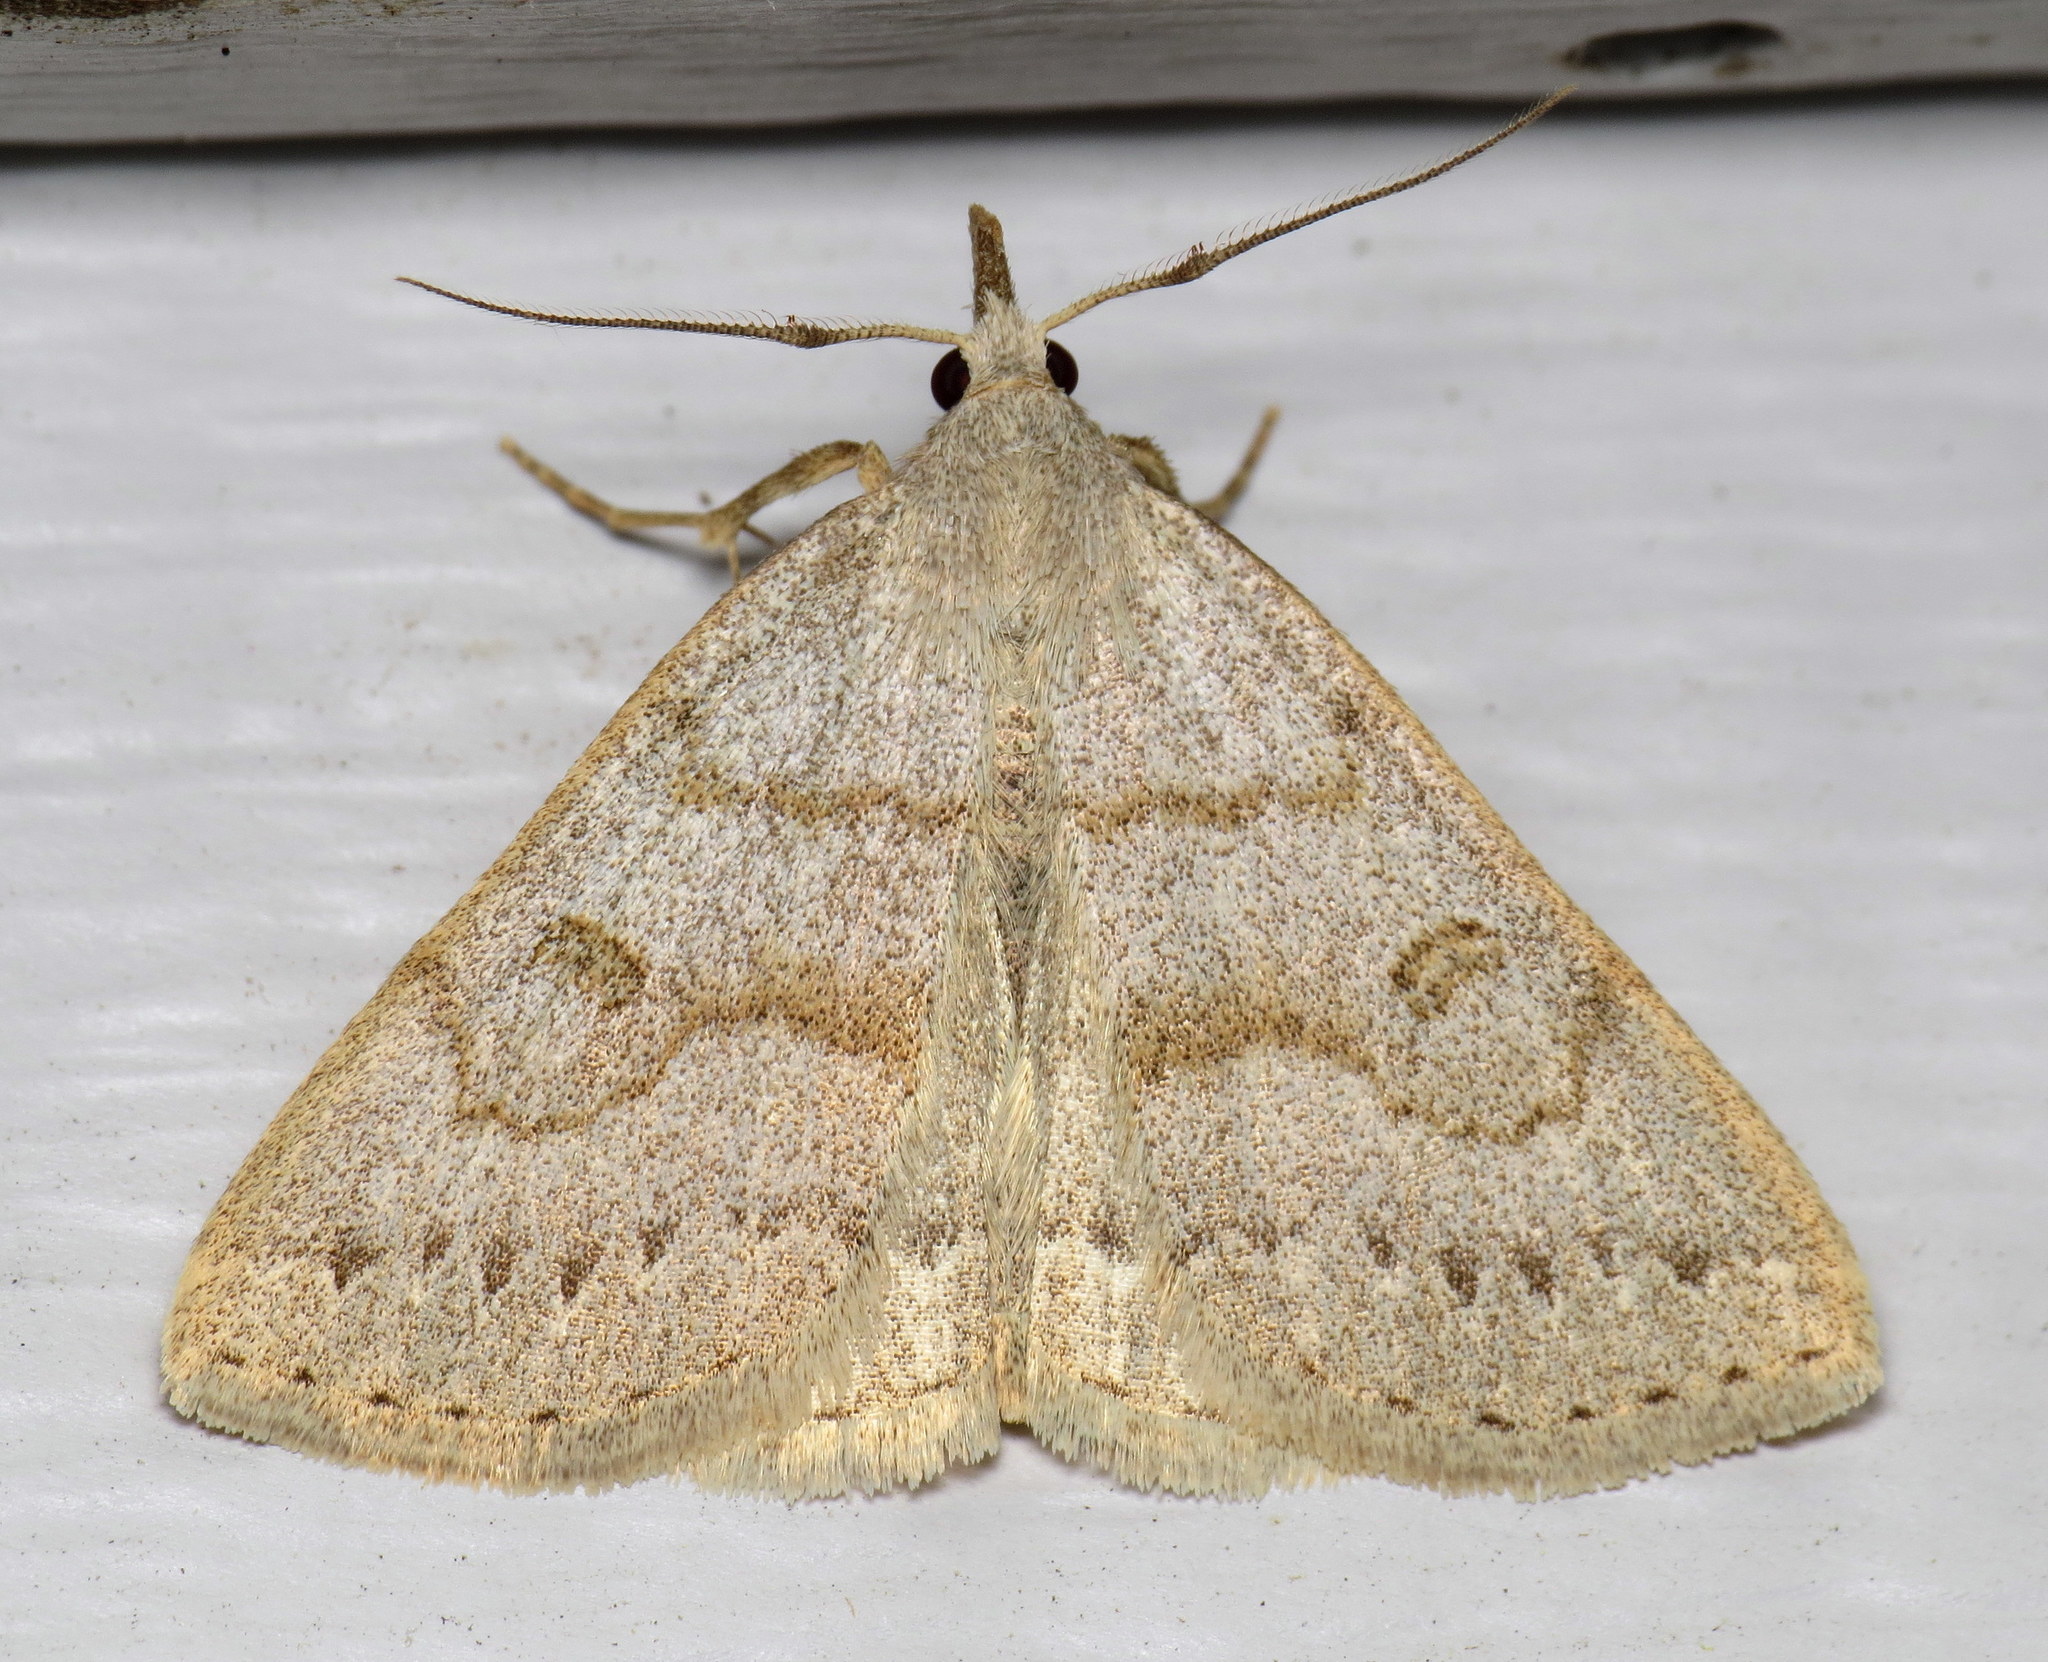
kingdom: Animalia
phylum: Arthropoda
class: Insecta
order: Lepidoptera
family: Erebidae
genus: Macrochilo
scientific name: Macrochilo morbidalis
